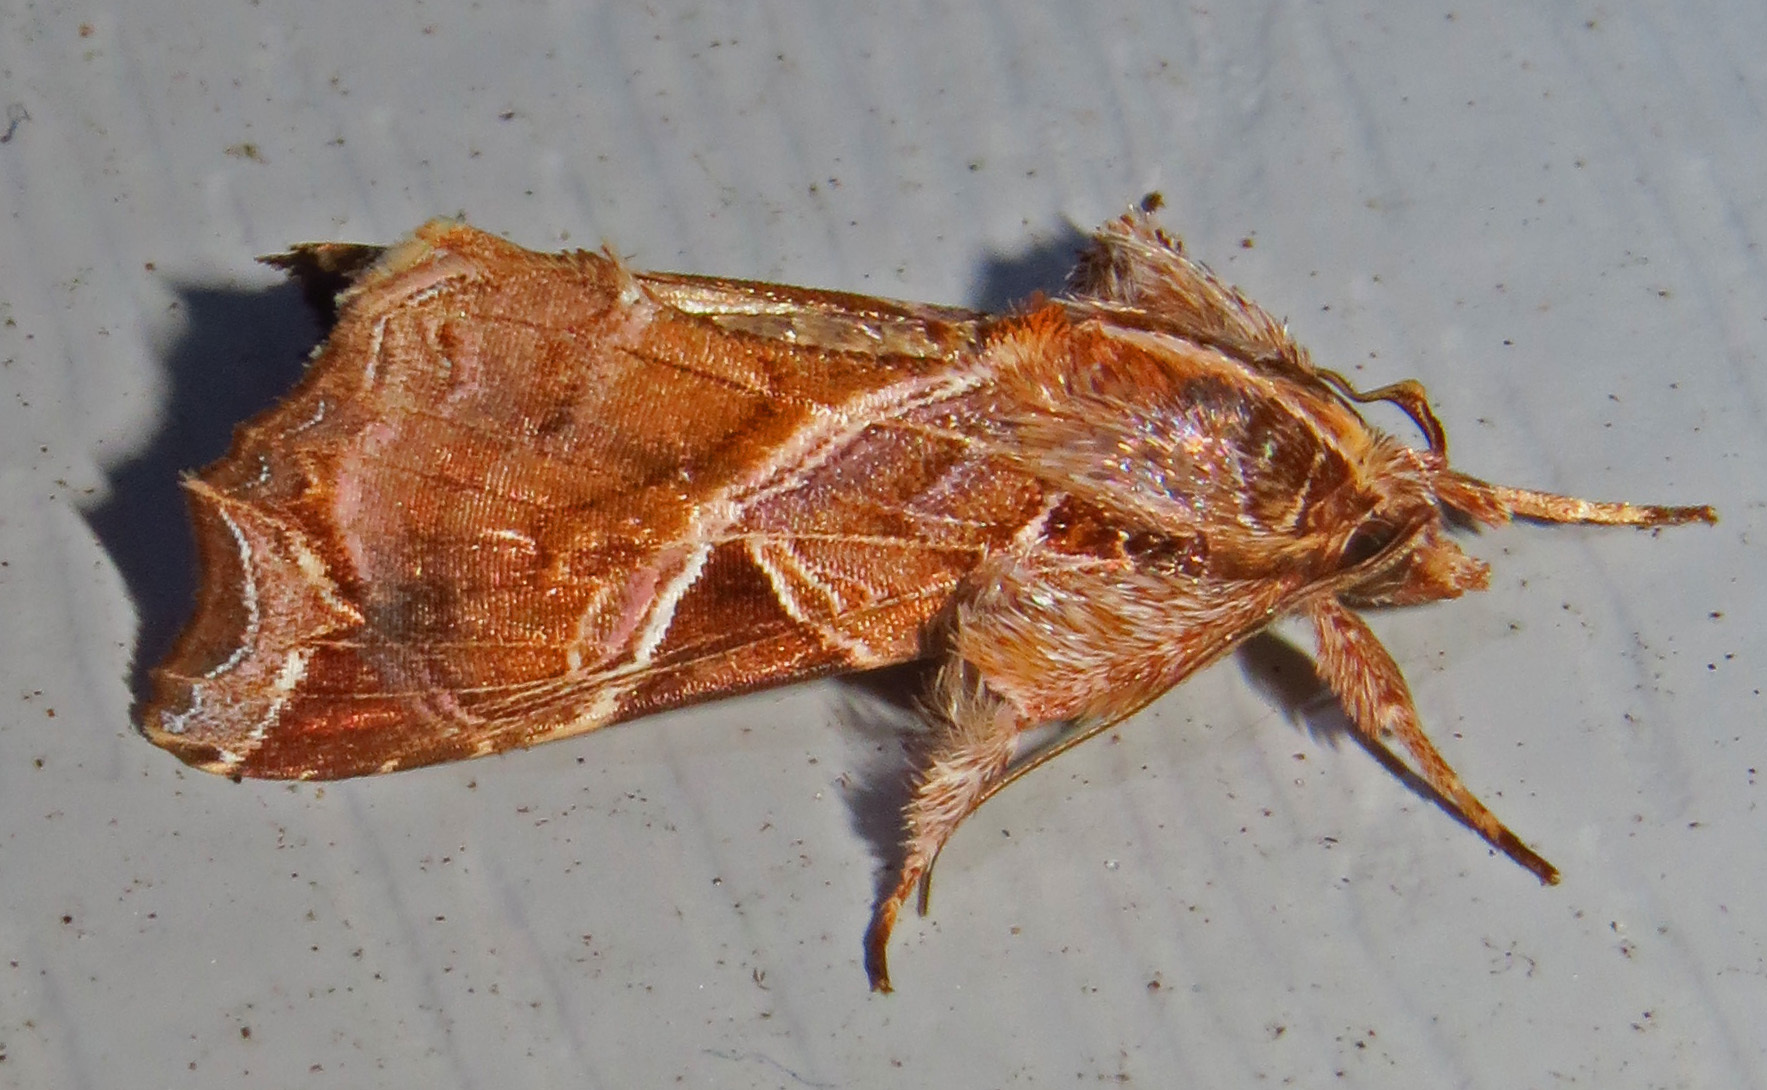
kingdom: Animalia
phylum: Arthropoda
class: Insecta
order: Lepidoptera
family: Noctuidae
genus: Callopistria
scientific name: Callopistria floridensis
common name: Florida fern moth
